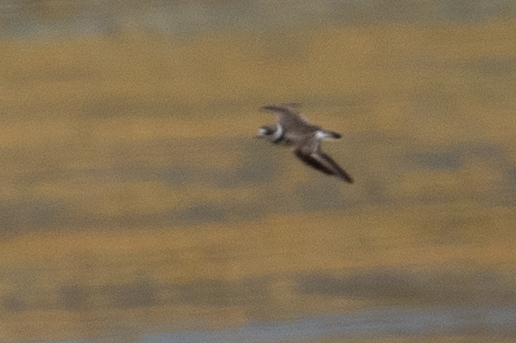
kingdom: Animalia
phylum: Chordata
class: Aves
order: Charadriiformes
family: Charadriidae
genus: Charadrius
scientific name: Charadrius semipalmatus
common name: Semipalmated plover
